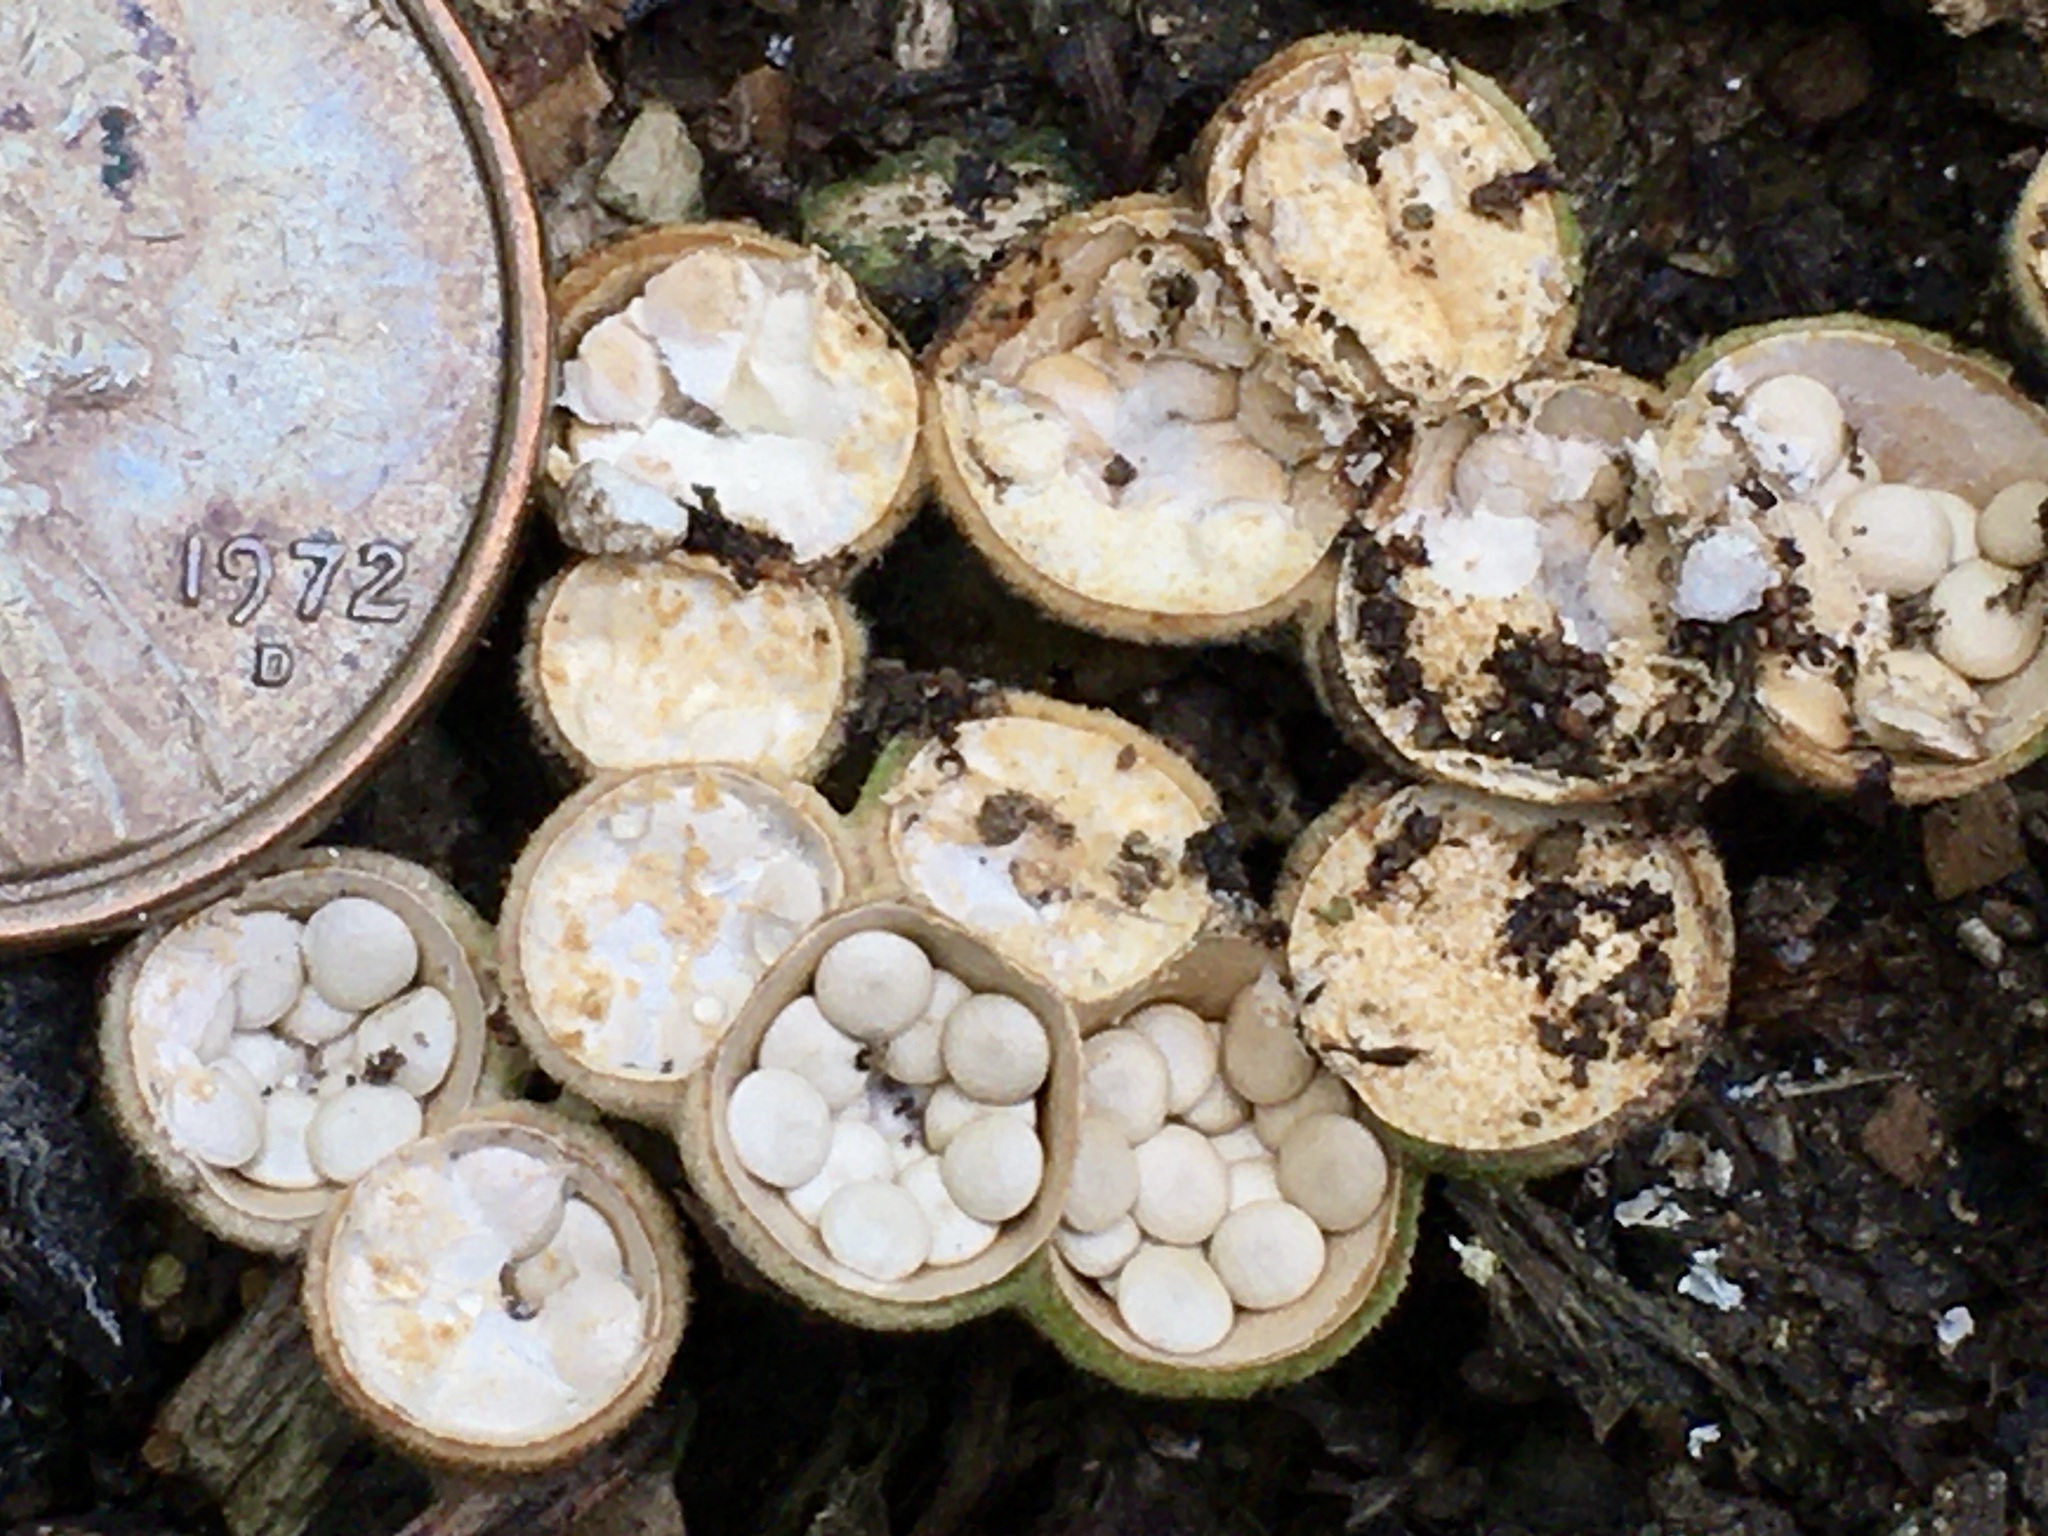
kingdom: Fungi
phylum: Basidiomycota
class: Agaricomycetes
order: Agaricales
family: Nidulariaceae
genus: Crucibulum
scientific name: Crucibulum laeve
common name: Common bird's nest
